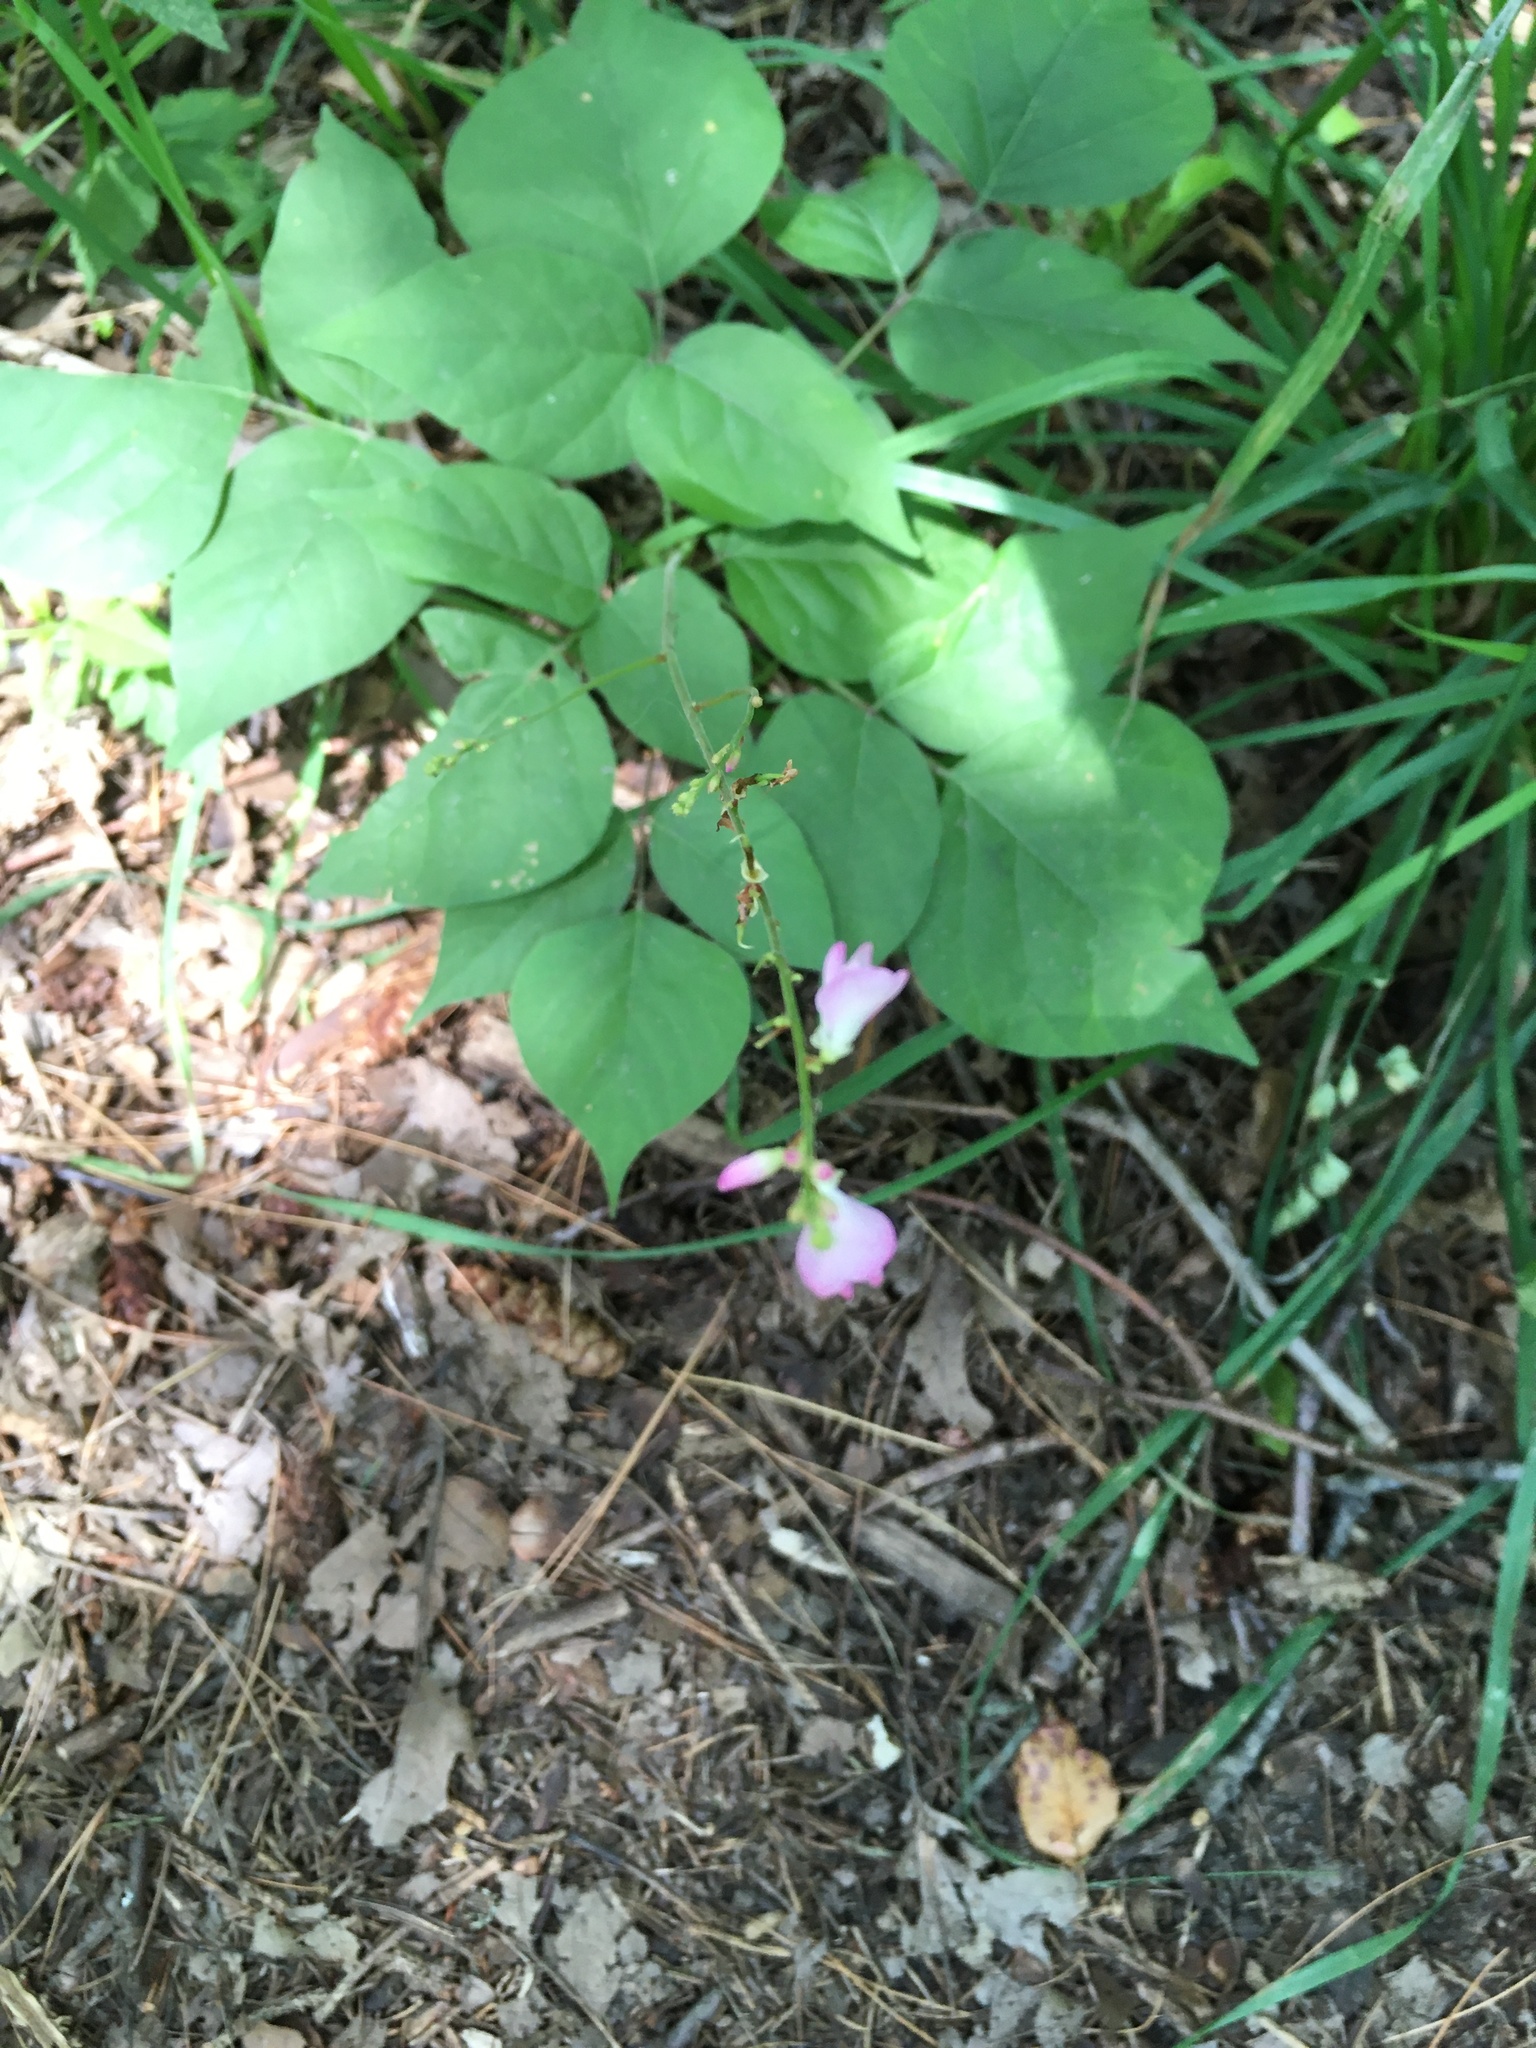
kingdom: Plantae
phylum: Tracheophyta
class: Magnoliopsida
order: Fabales
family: Fabaceae
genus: Hylodesmum
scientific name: Hylodesmum glutinosum
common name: Clustered-leaved tick-trefoil
